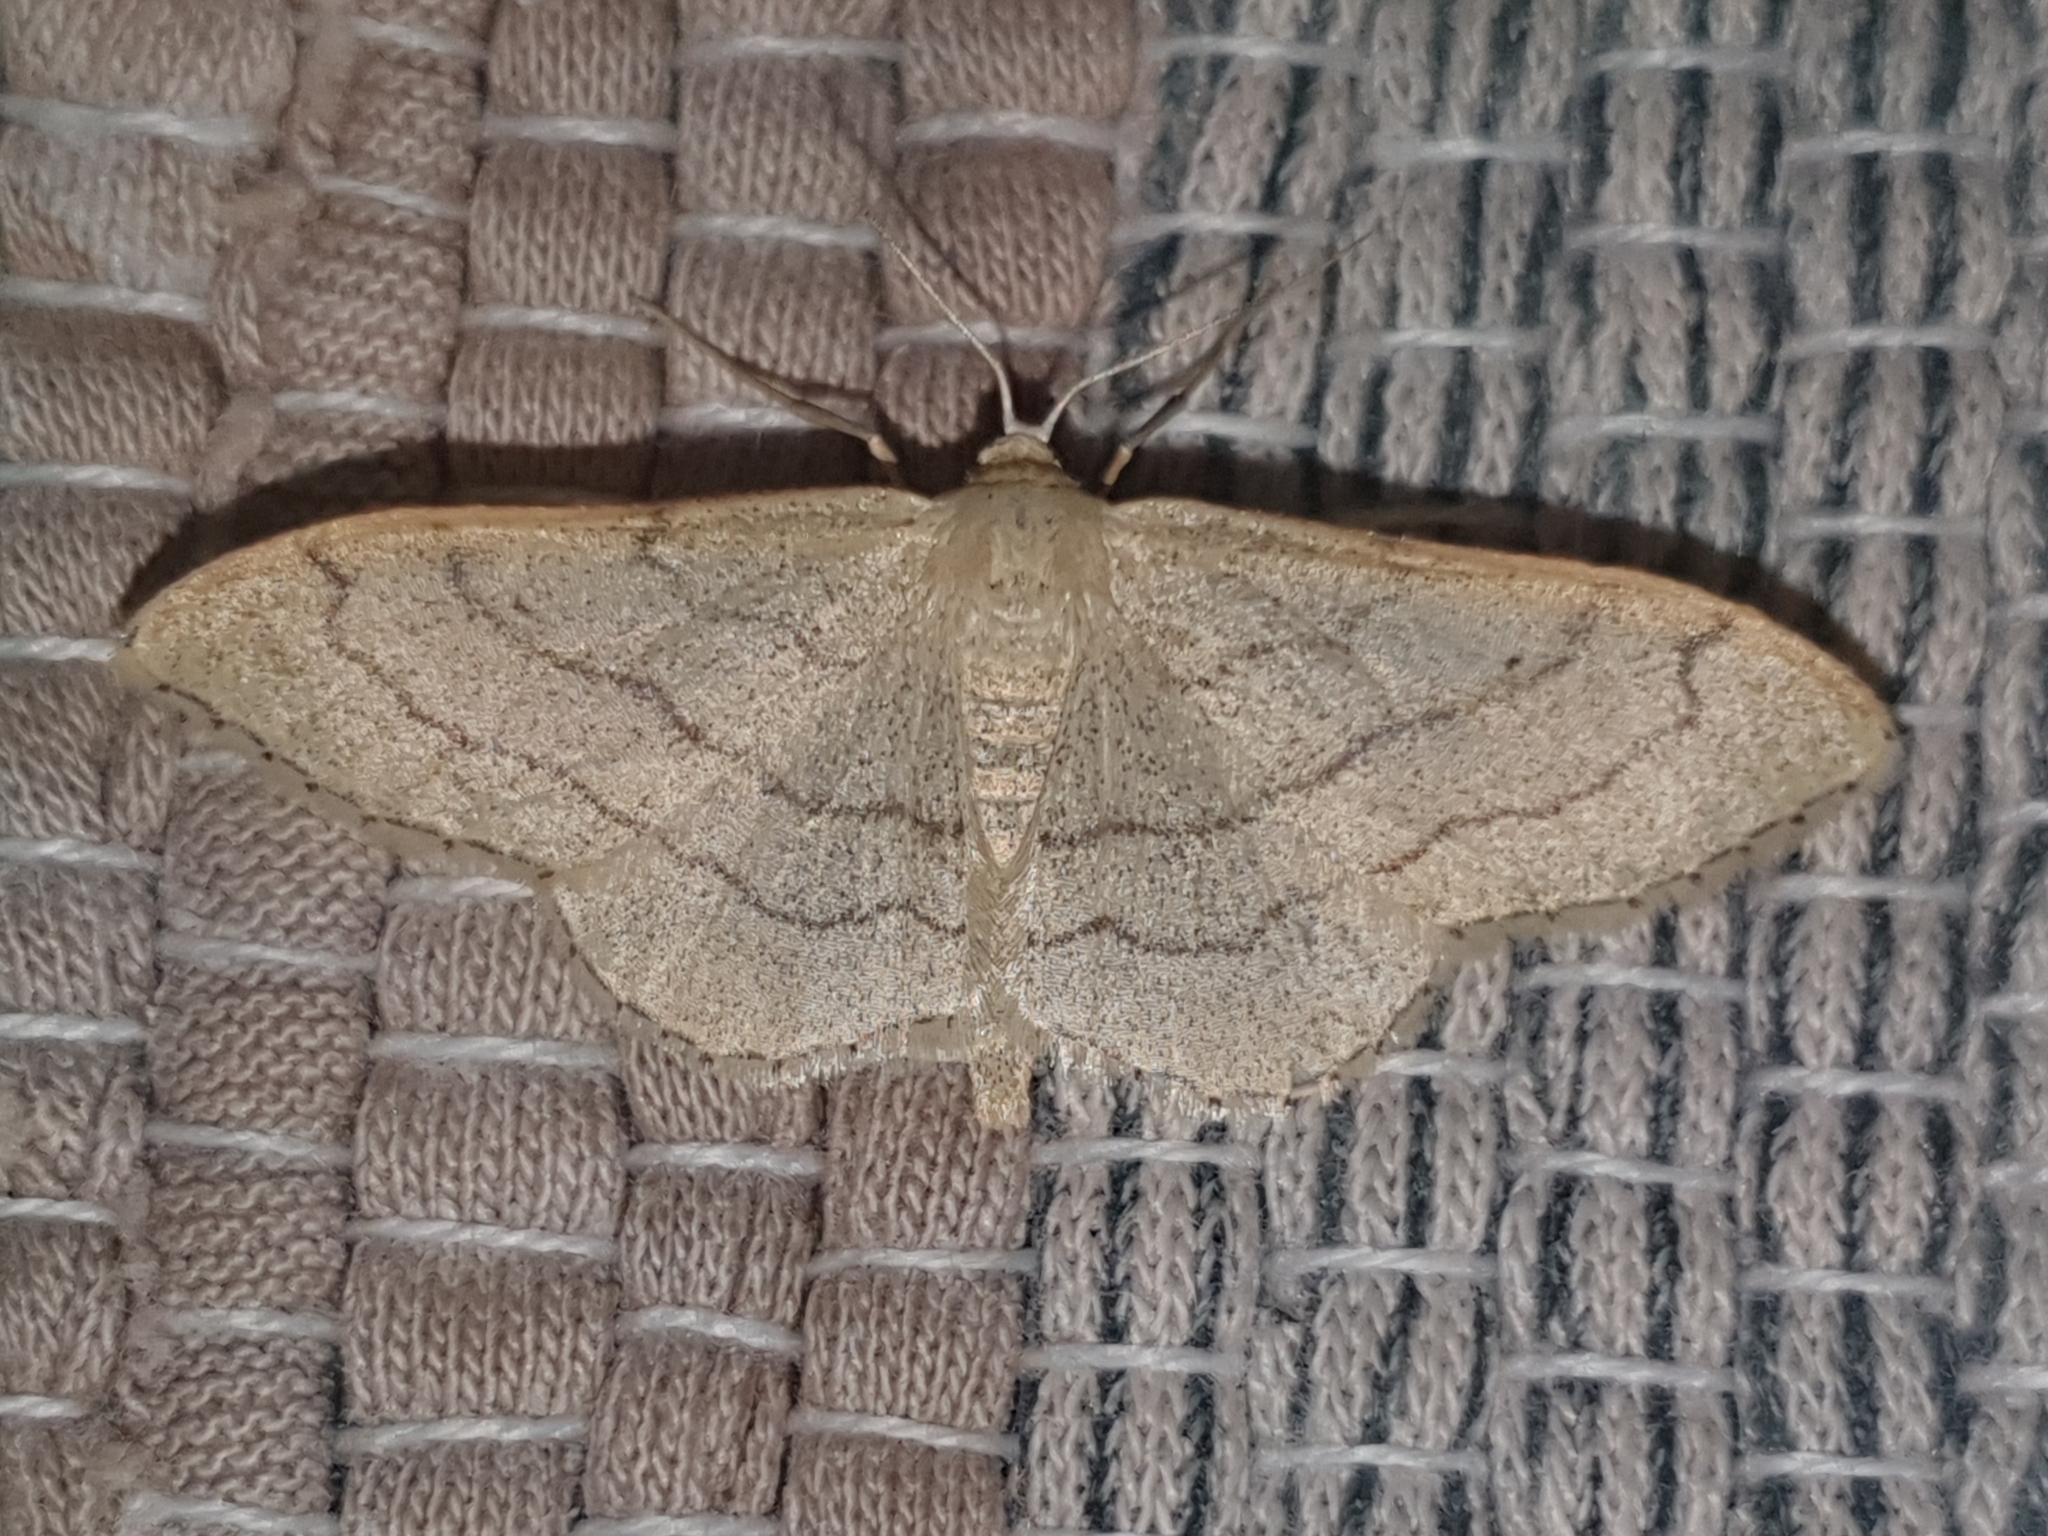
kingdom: Animalia
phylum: Arthropoda
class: Insecta
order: Lepidoptera
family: Geometridae
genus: Idaea
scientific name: Idaea aversata
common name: Riband wave
